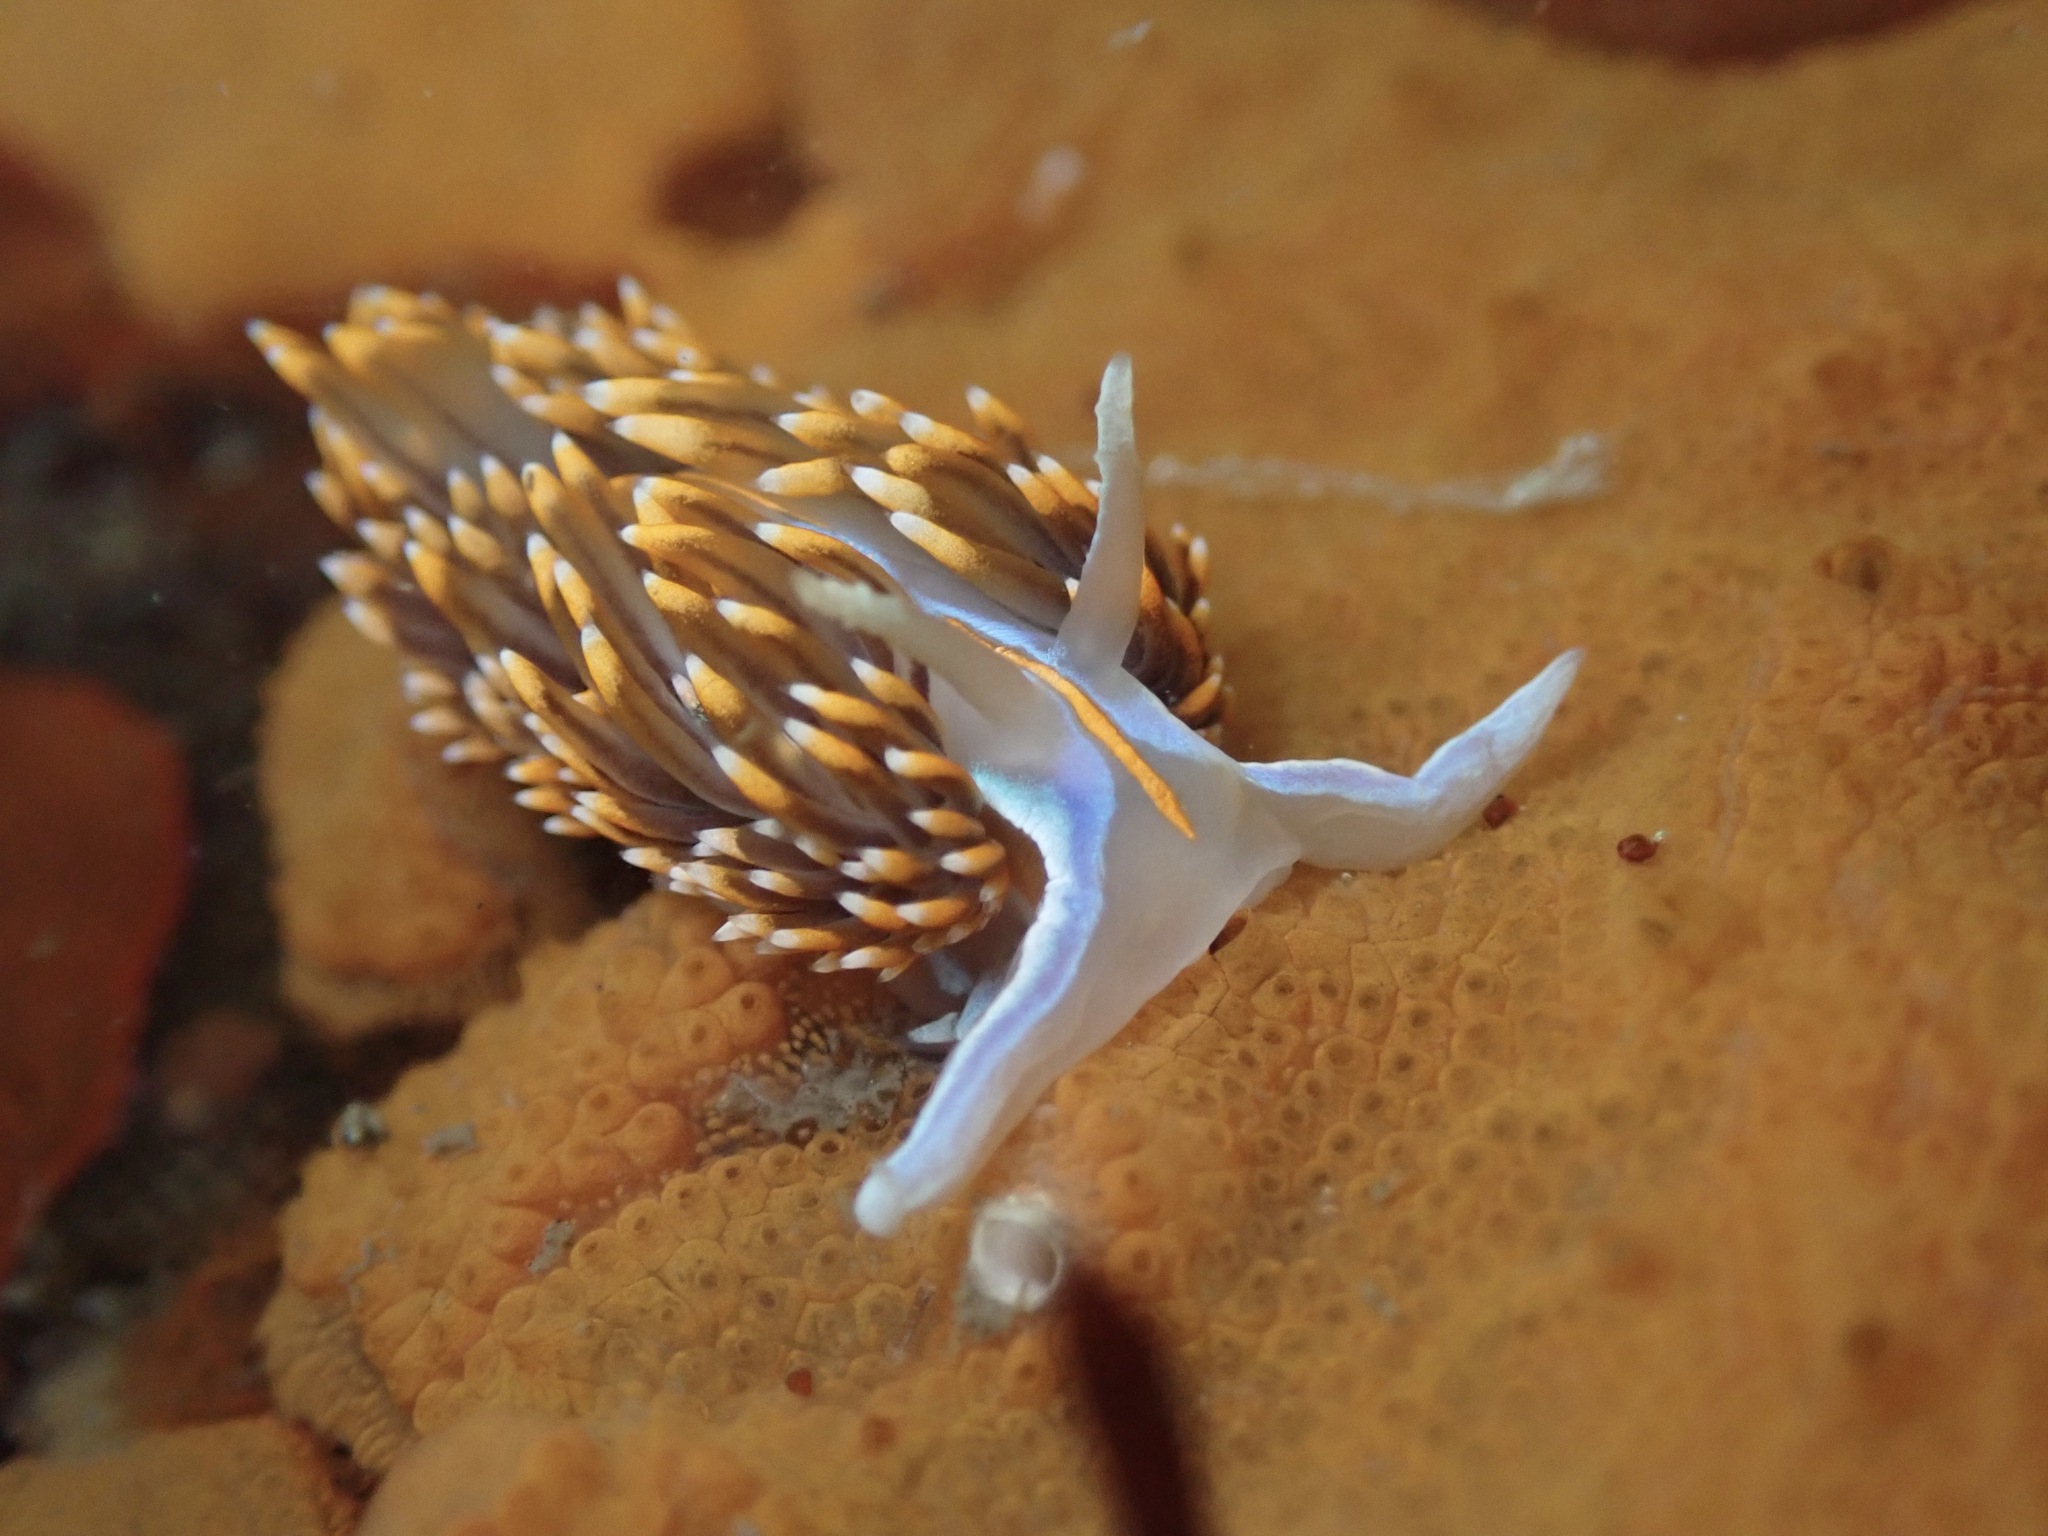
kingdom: Animalia
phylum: Mollusca
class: Gastropoda
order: Nudibranchia
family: Myrrhinidae
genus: Hermissenda
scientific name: Hermissenda opalescens
